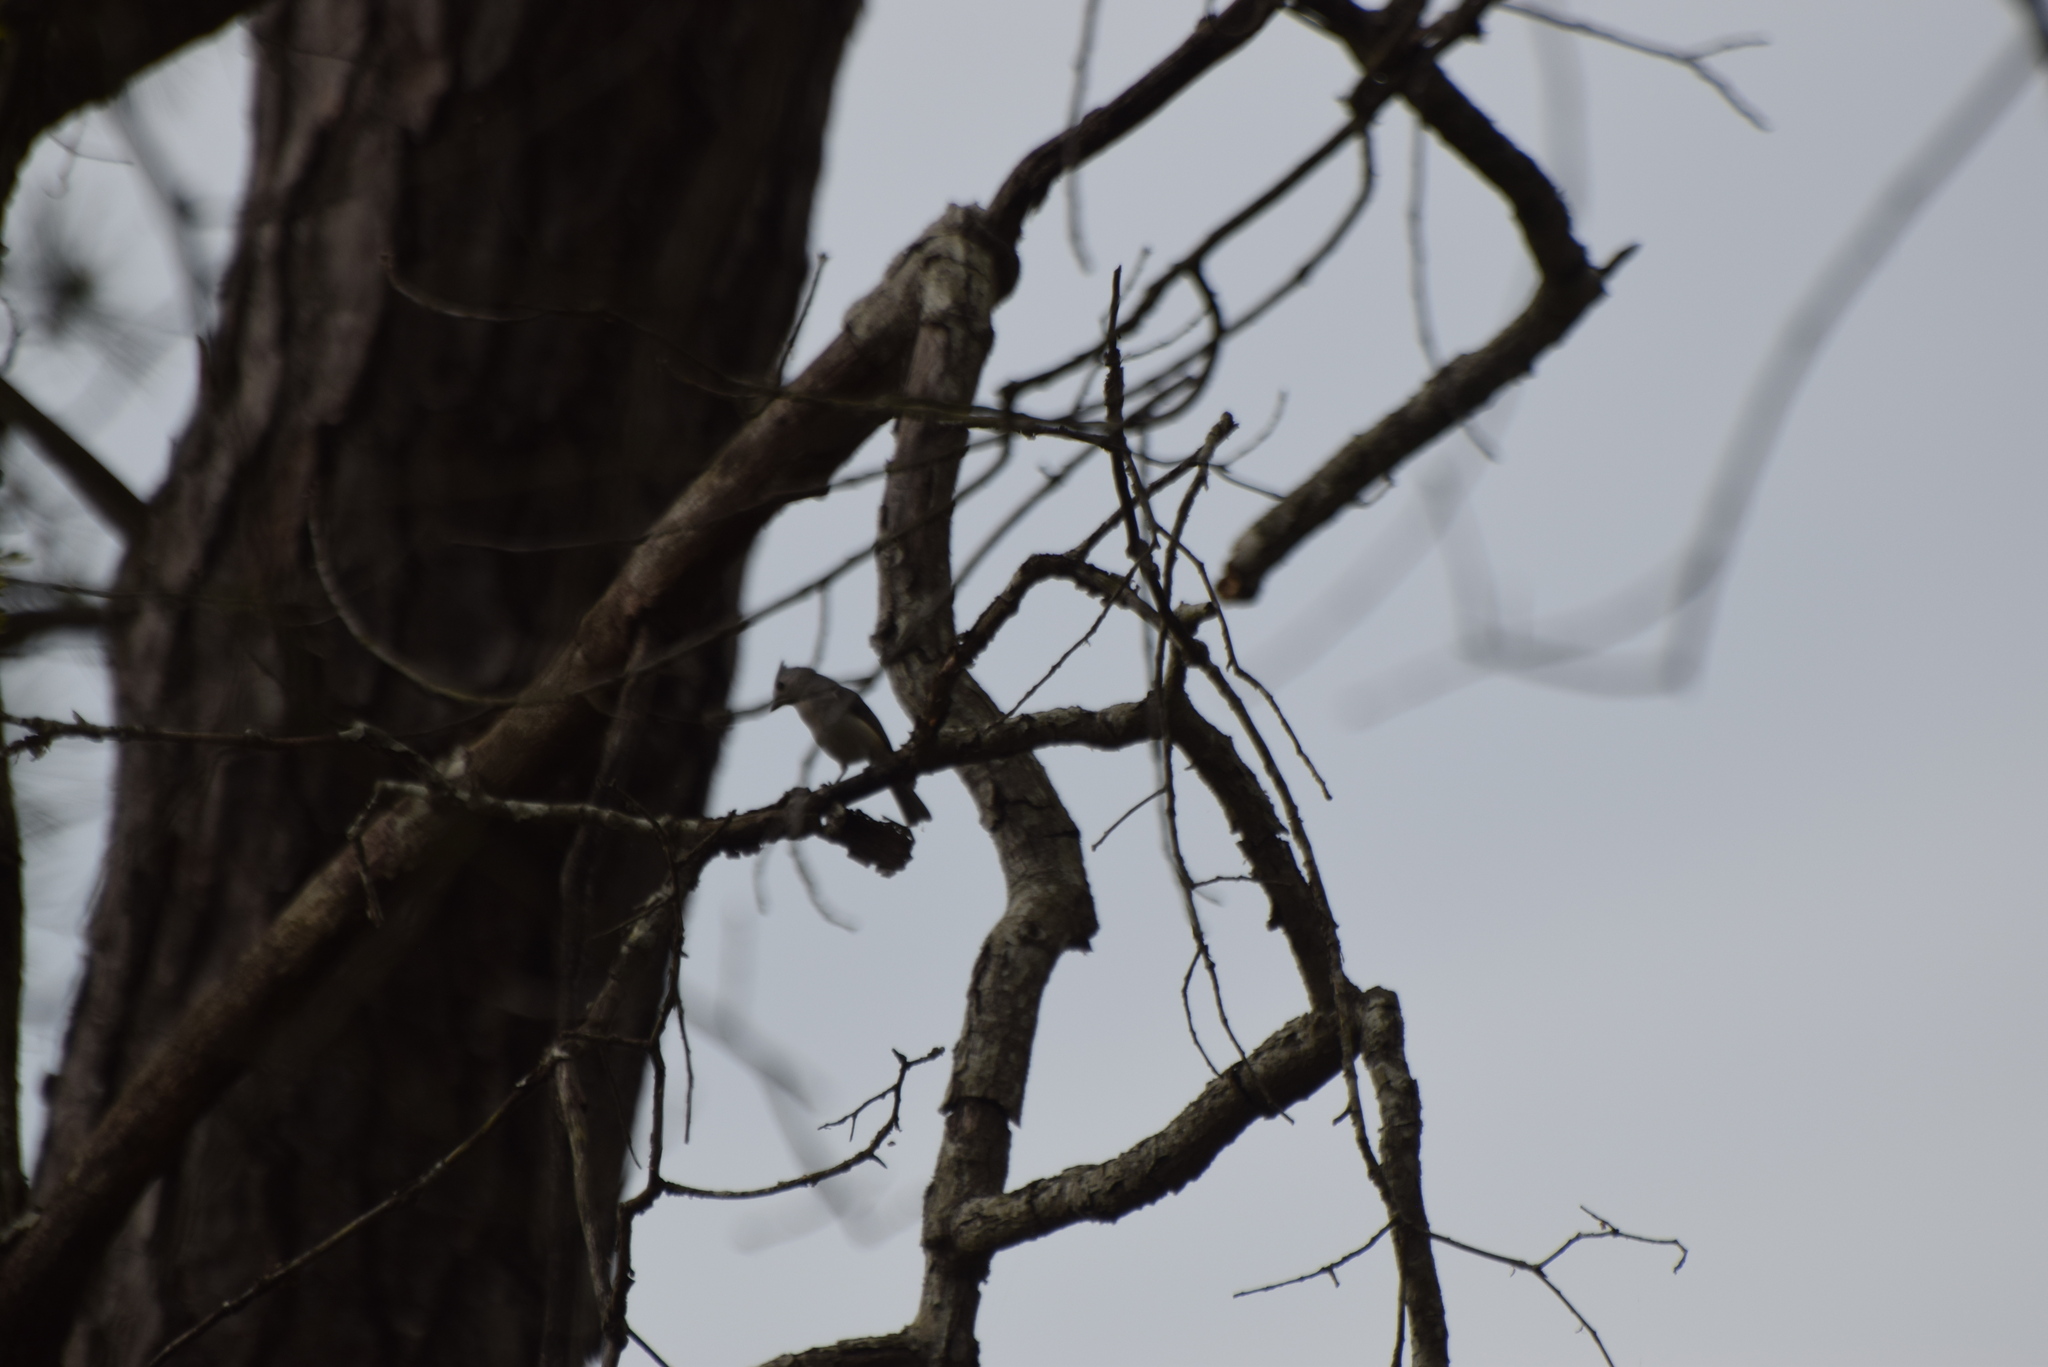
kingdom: Animalia
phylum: Chordata
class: Aves
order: Passeriformes
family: Paridae
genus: Baeolophus
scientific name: Baeolophus bicolor
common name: Tufted titmouse
